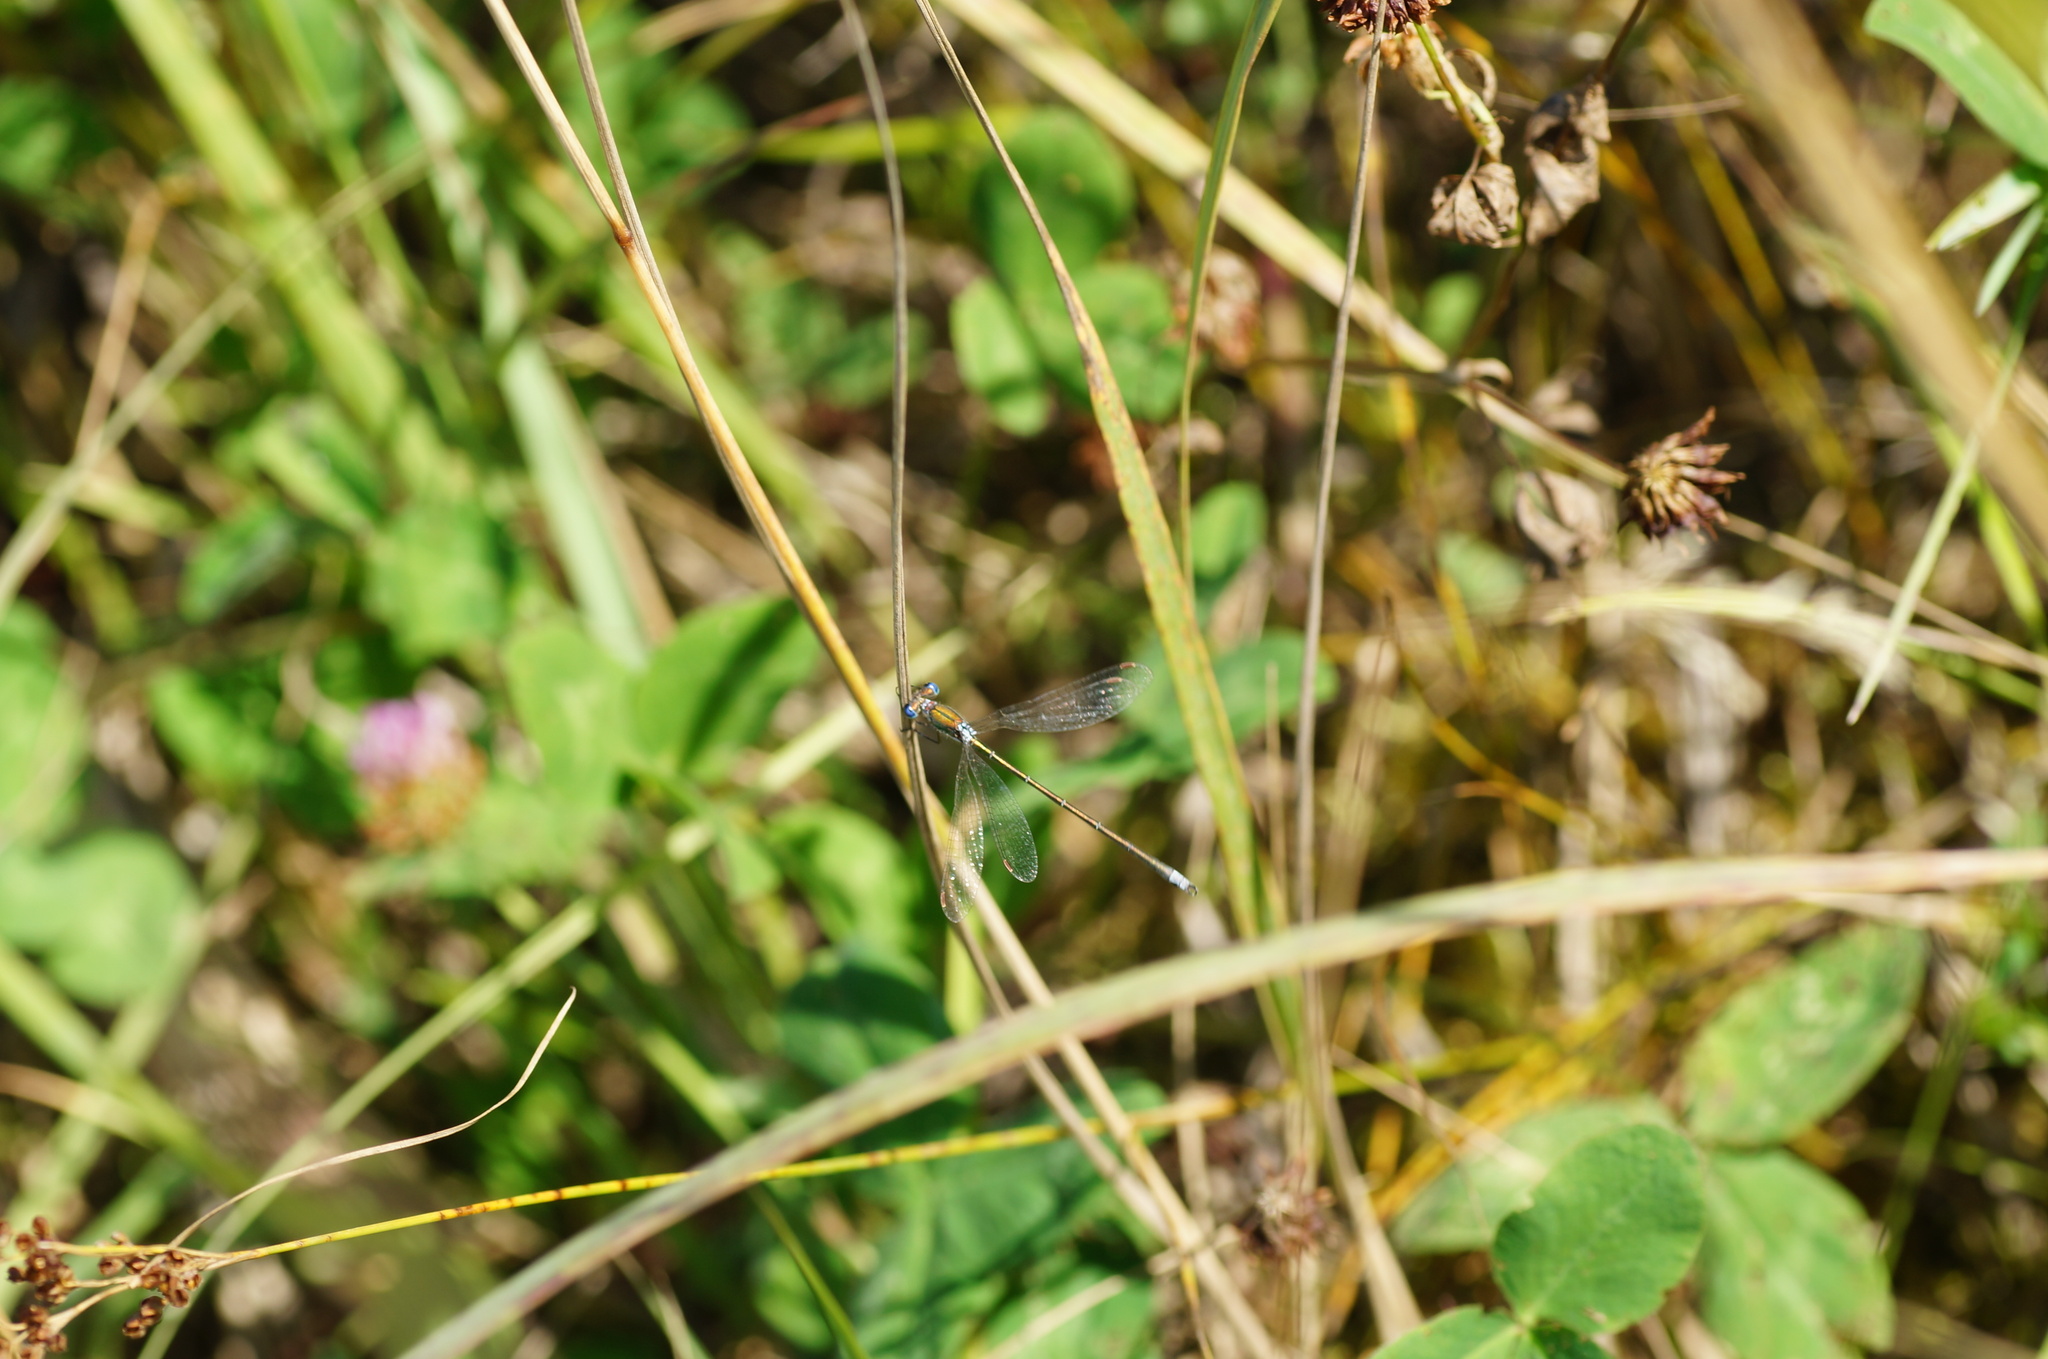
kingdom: Animalia
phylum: Arthropoda
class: Insecta
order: Odonata
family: Lestidae
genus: Lestes
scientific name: Lestes virens
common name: Small emerald spreadwing
